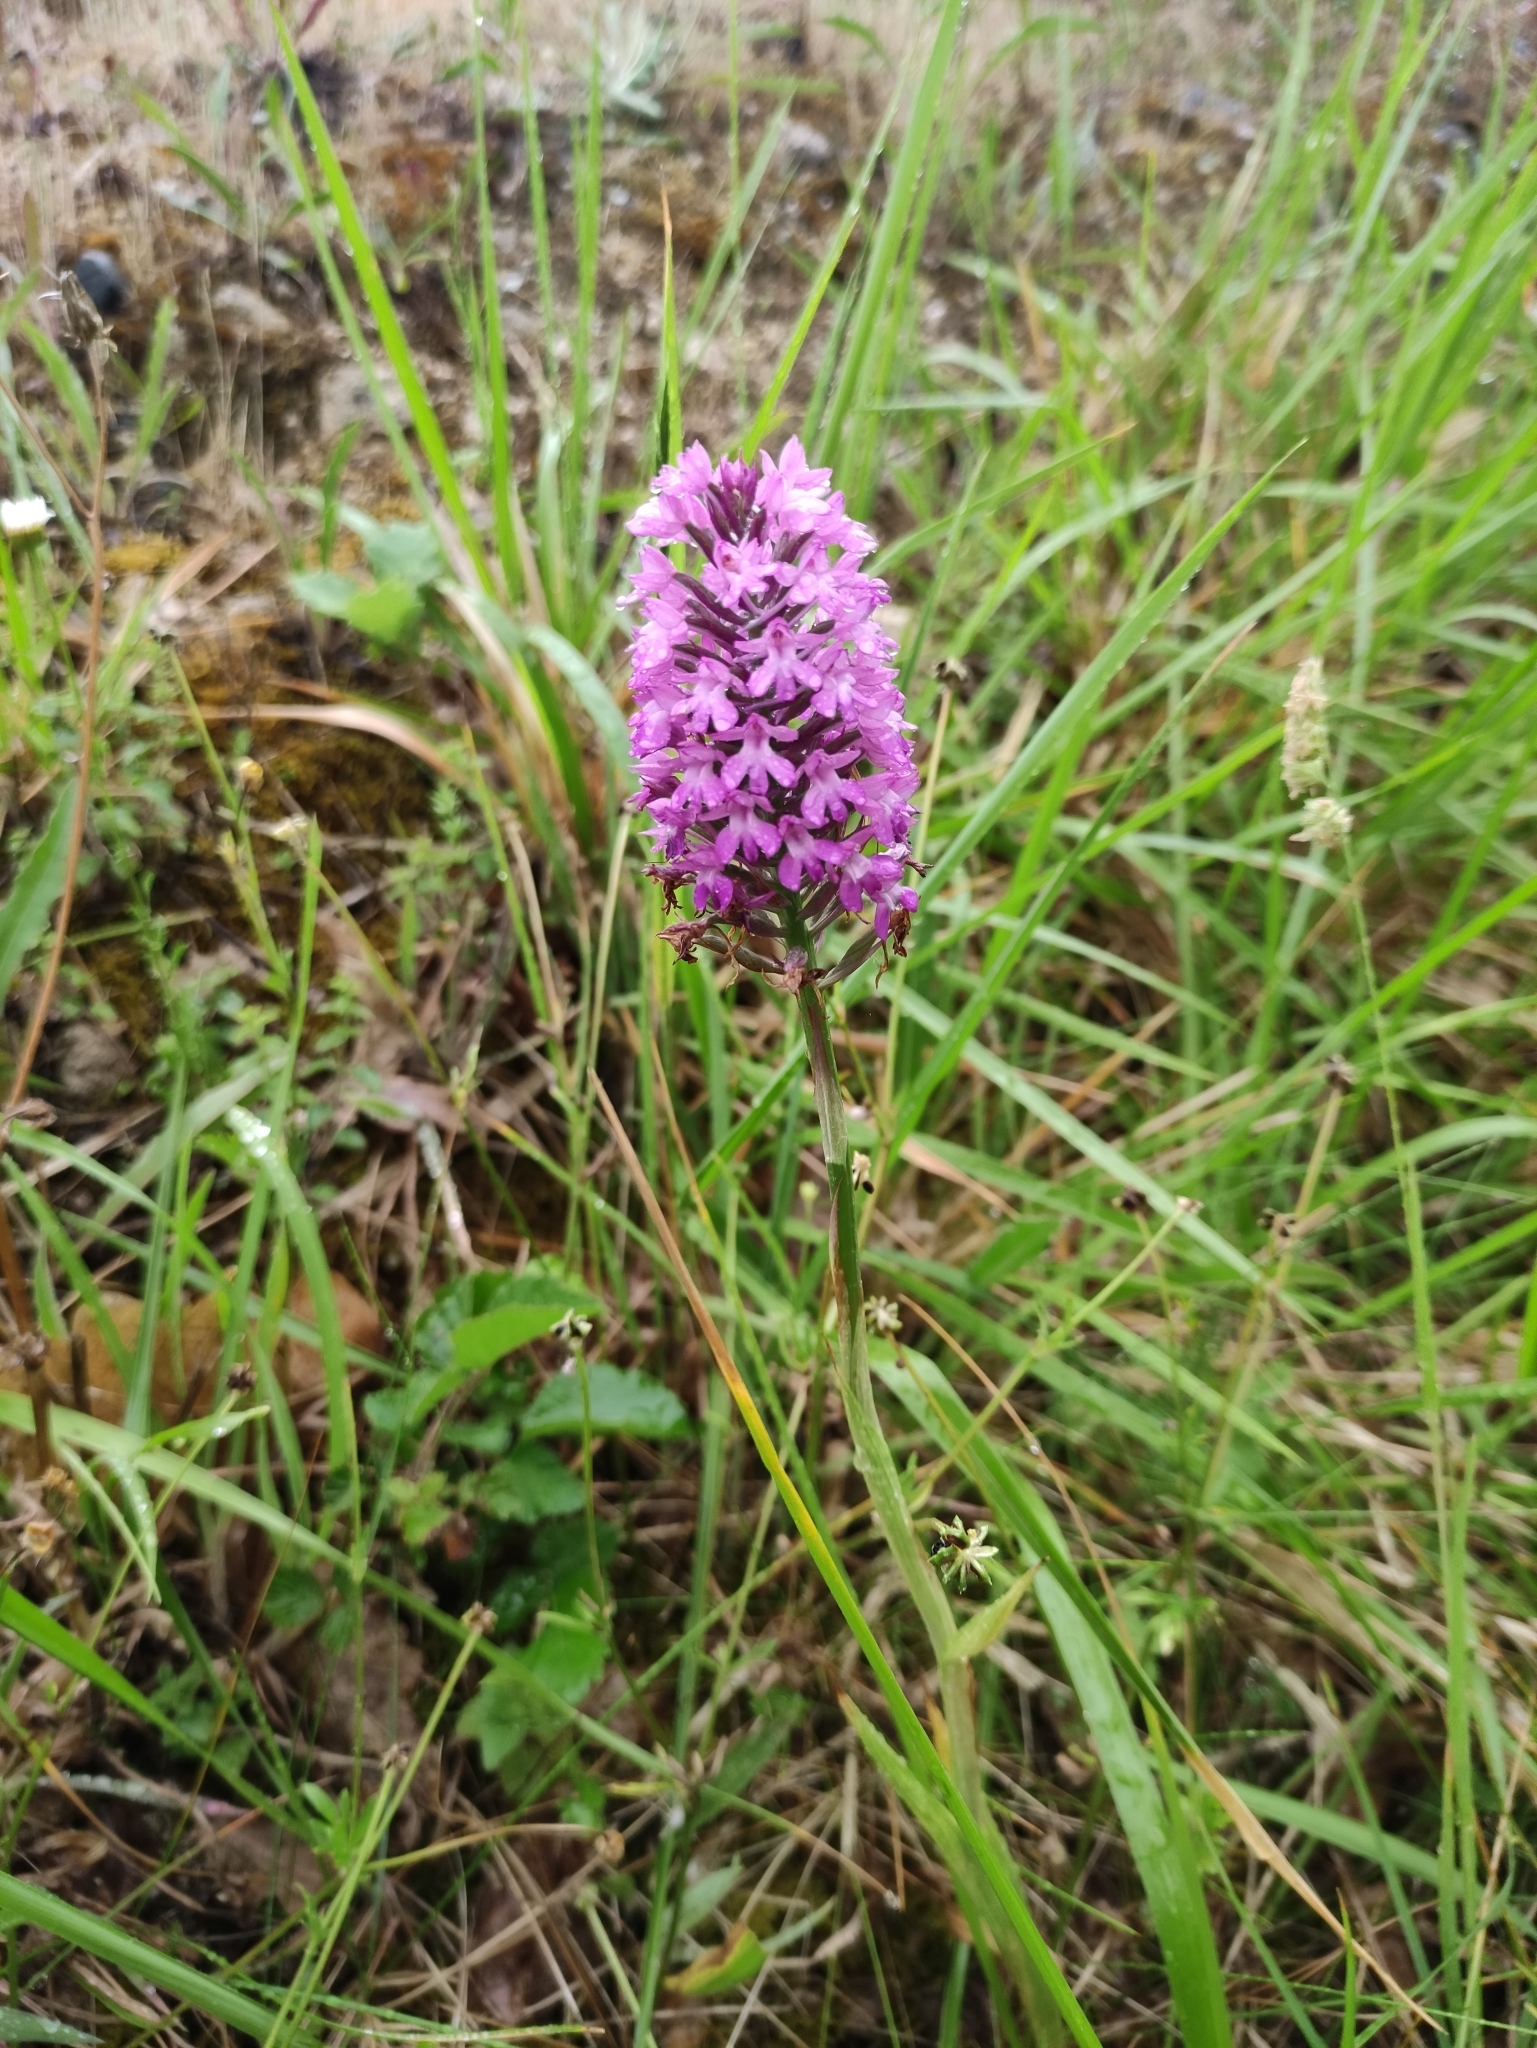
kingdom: Plantae
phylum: Tracheophyta
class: Liliopsida
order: Asparagales
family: Orchidaceae
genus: Anacamptis
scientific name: Anacamptis pyramidalis
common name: Pyramidal orchid
